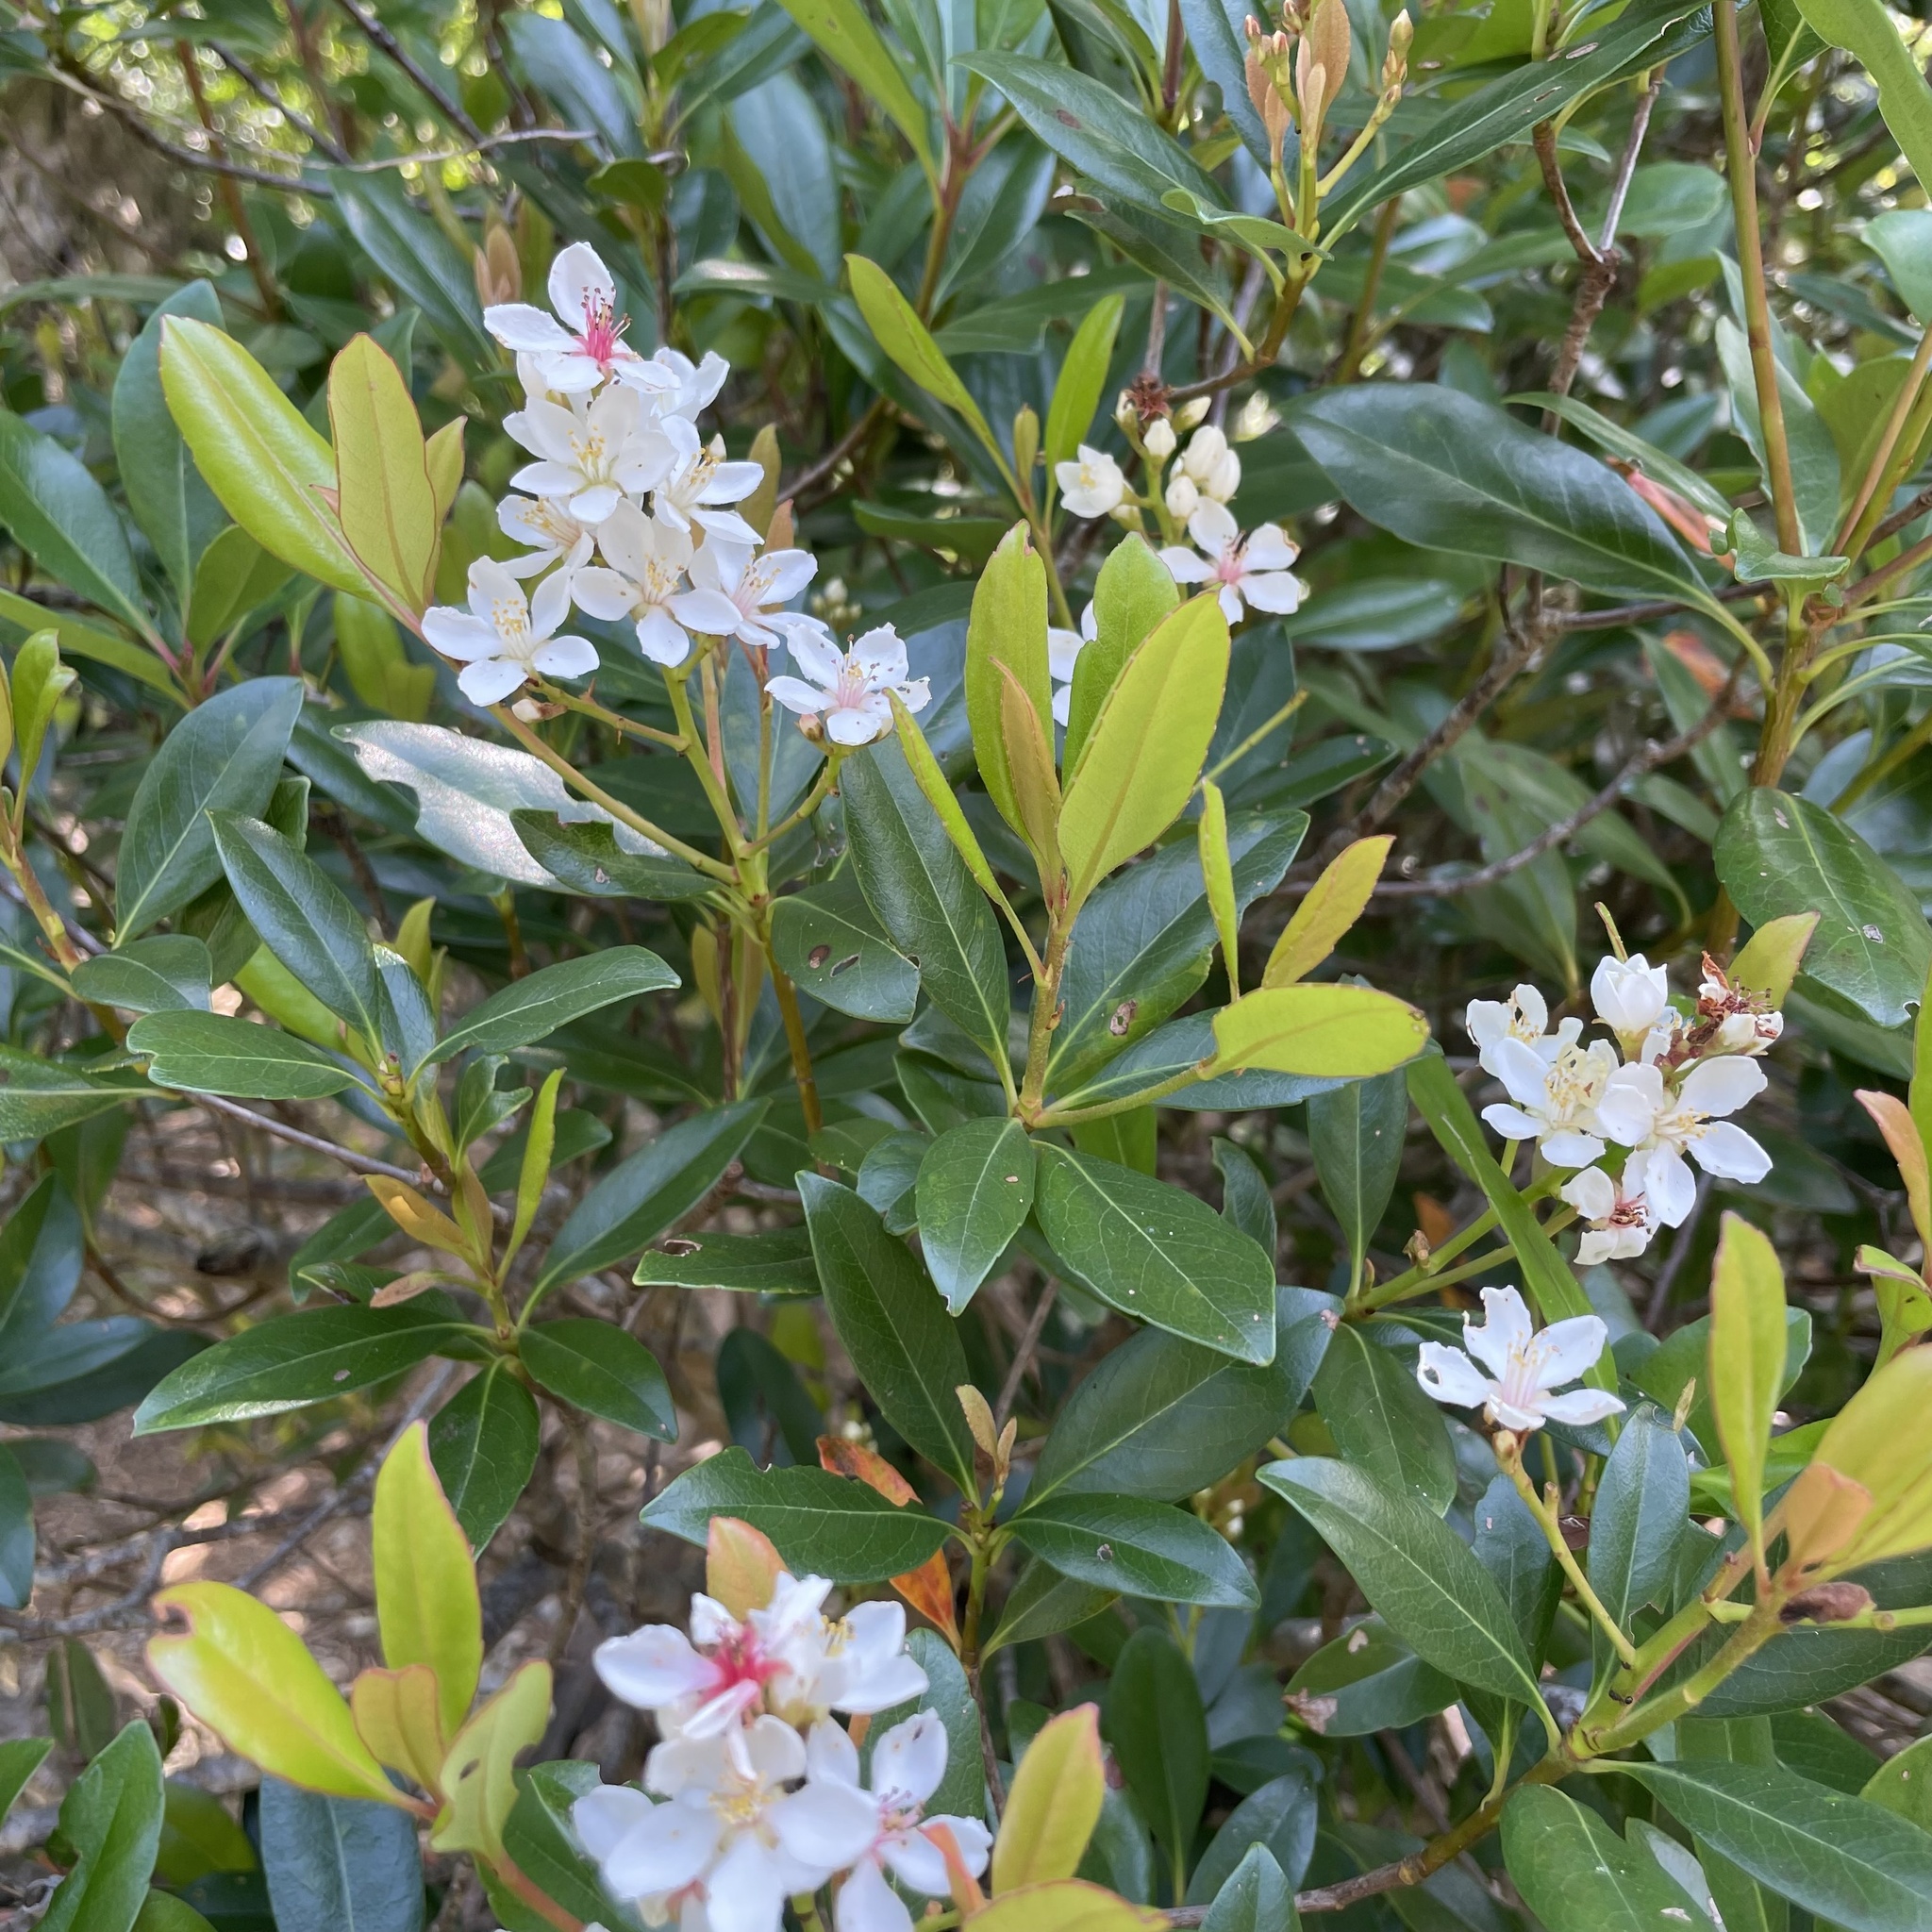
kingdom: Plantae
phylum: Tracheophyta
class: Magnoliopsida
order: Rosales
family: Rosaceae
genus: Rhaphiolepis
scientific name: Rhaphiolepis umbellata
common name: Yedda-hawthorn
